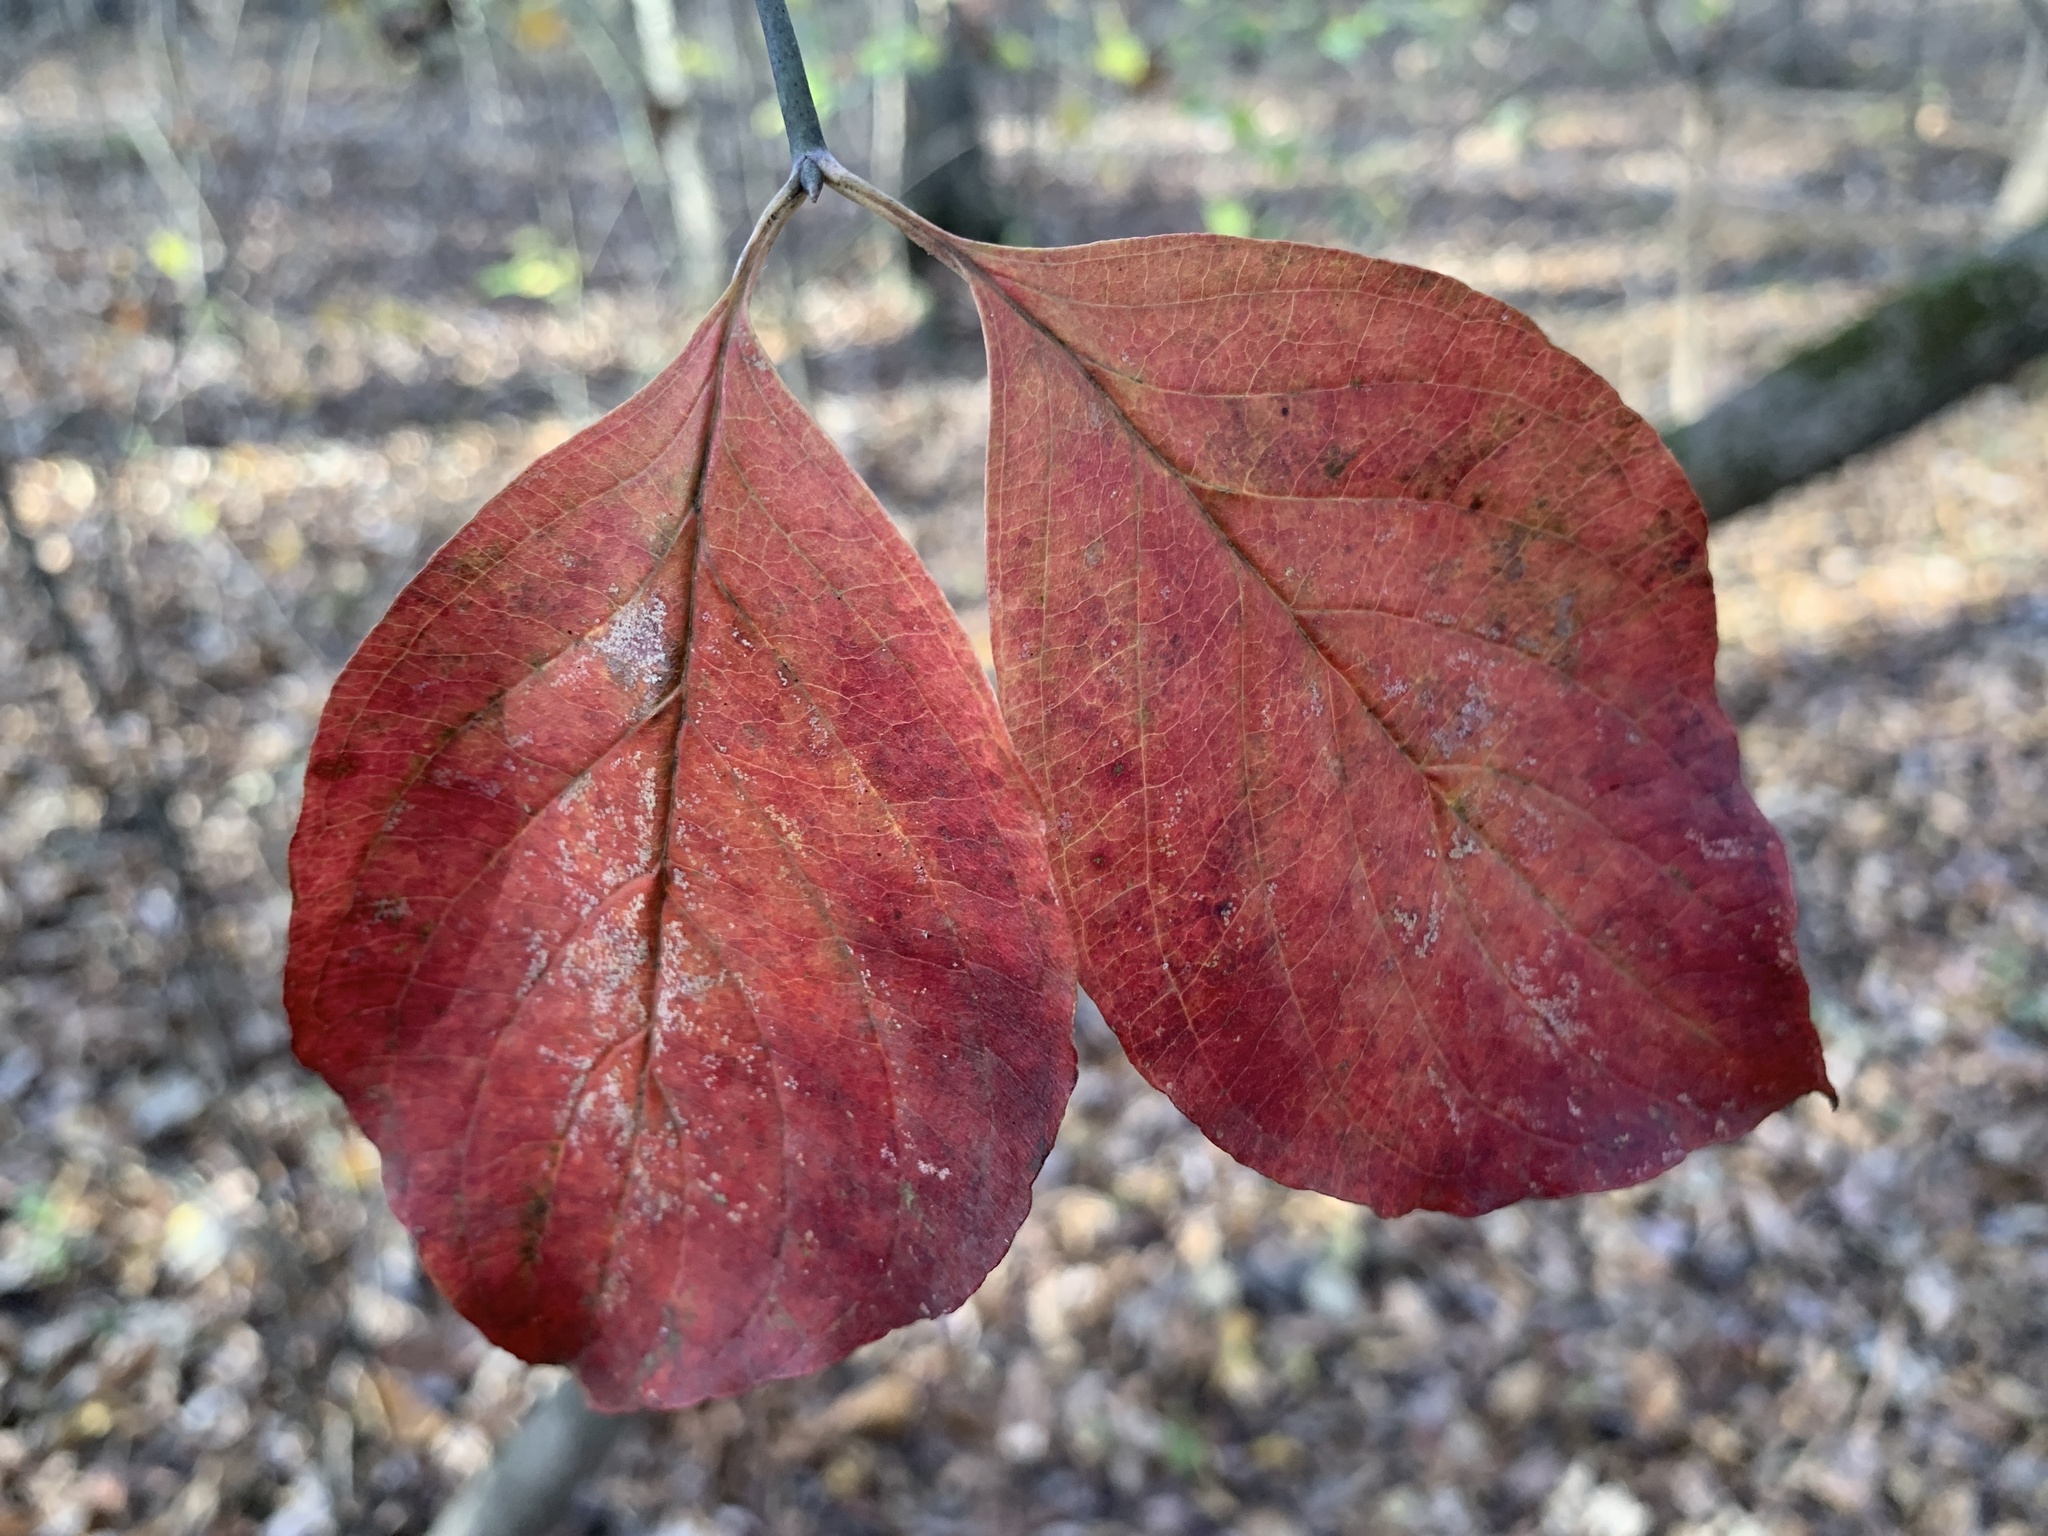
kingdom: Plantae
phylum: Tracheophyta
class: Magnoliopsida
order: Cornales
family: Cornaceae
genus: Cornus
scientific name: Cornus florida
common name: Flowering dogwood
